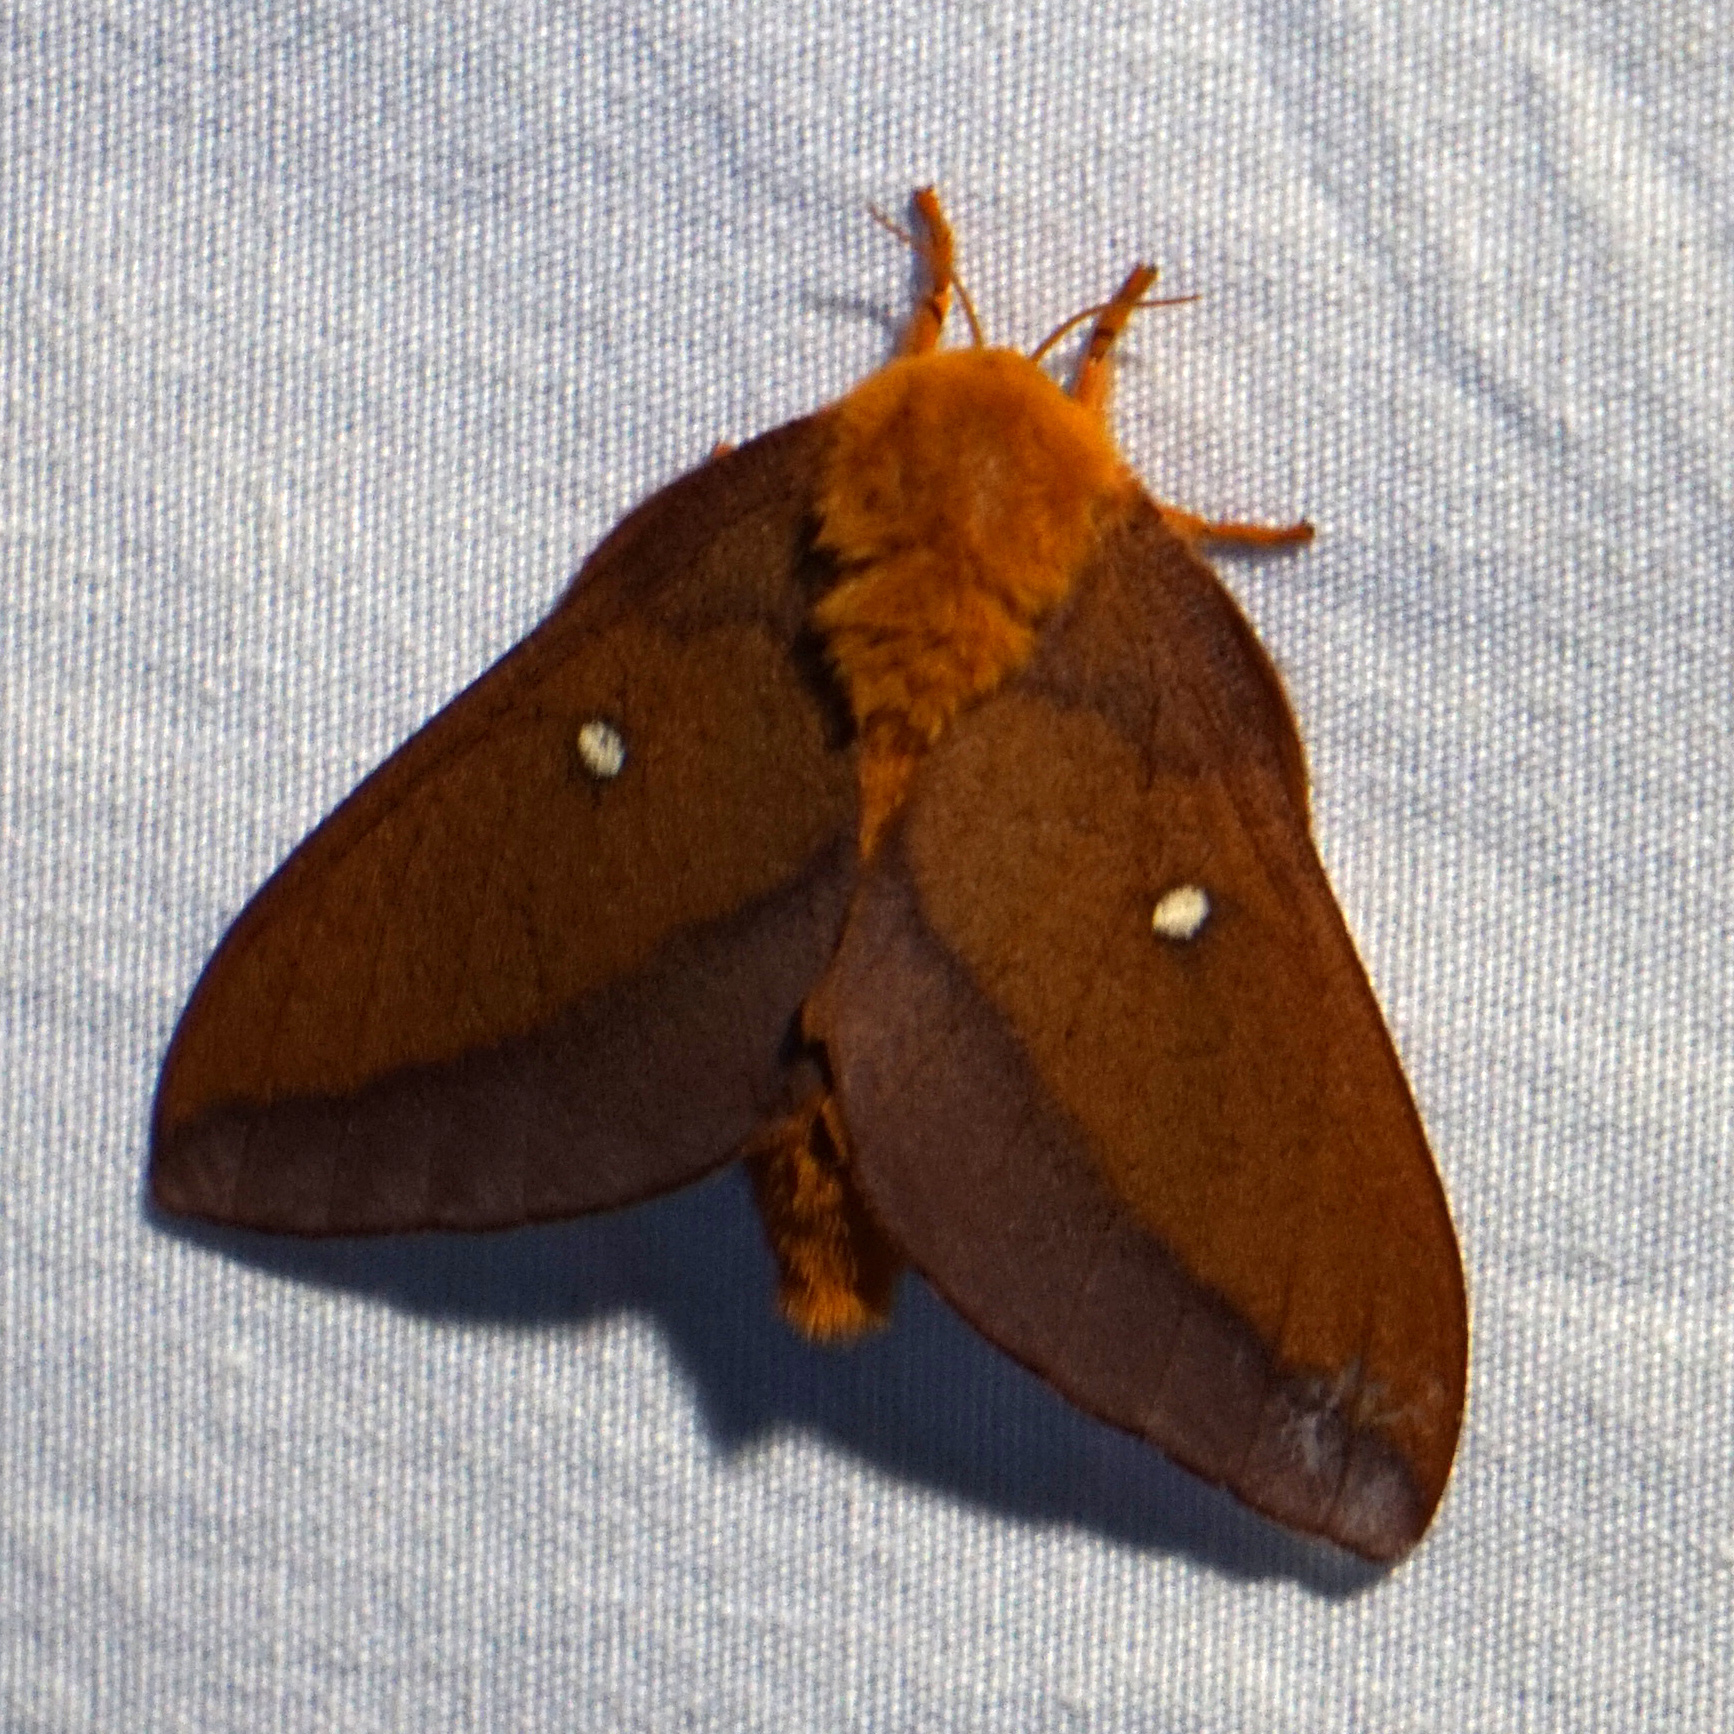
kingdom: Animalia
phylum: Arthropoda
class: Insecta
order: Lepidoptera
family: Saturniidae
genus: Anisota
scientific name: Anisota virginiensis
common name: Pink striped oakworm moth
